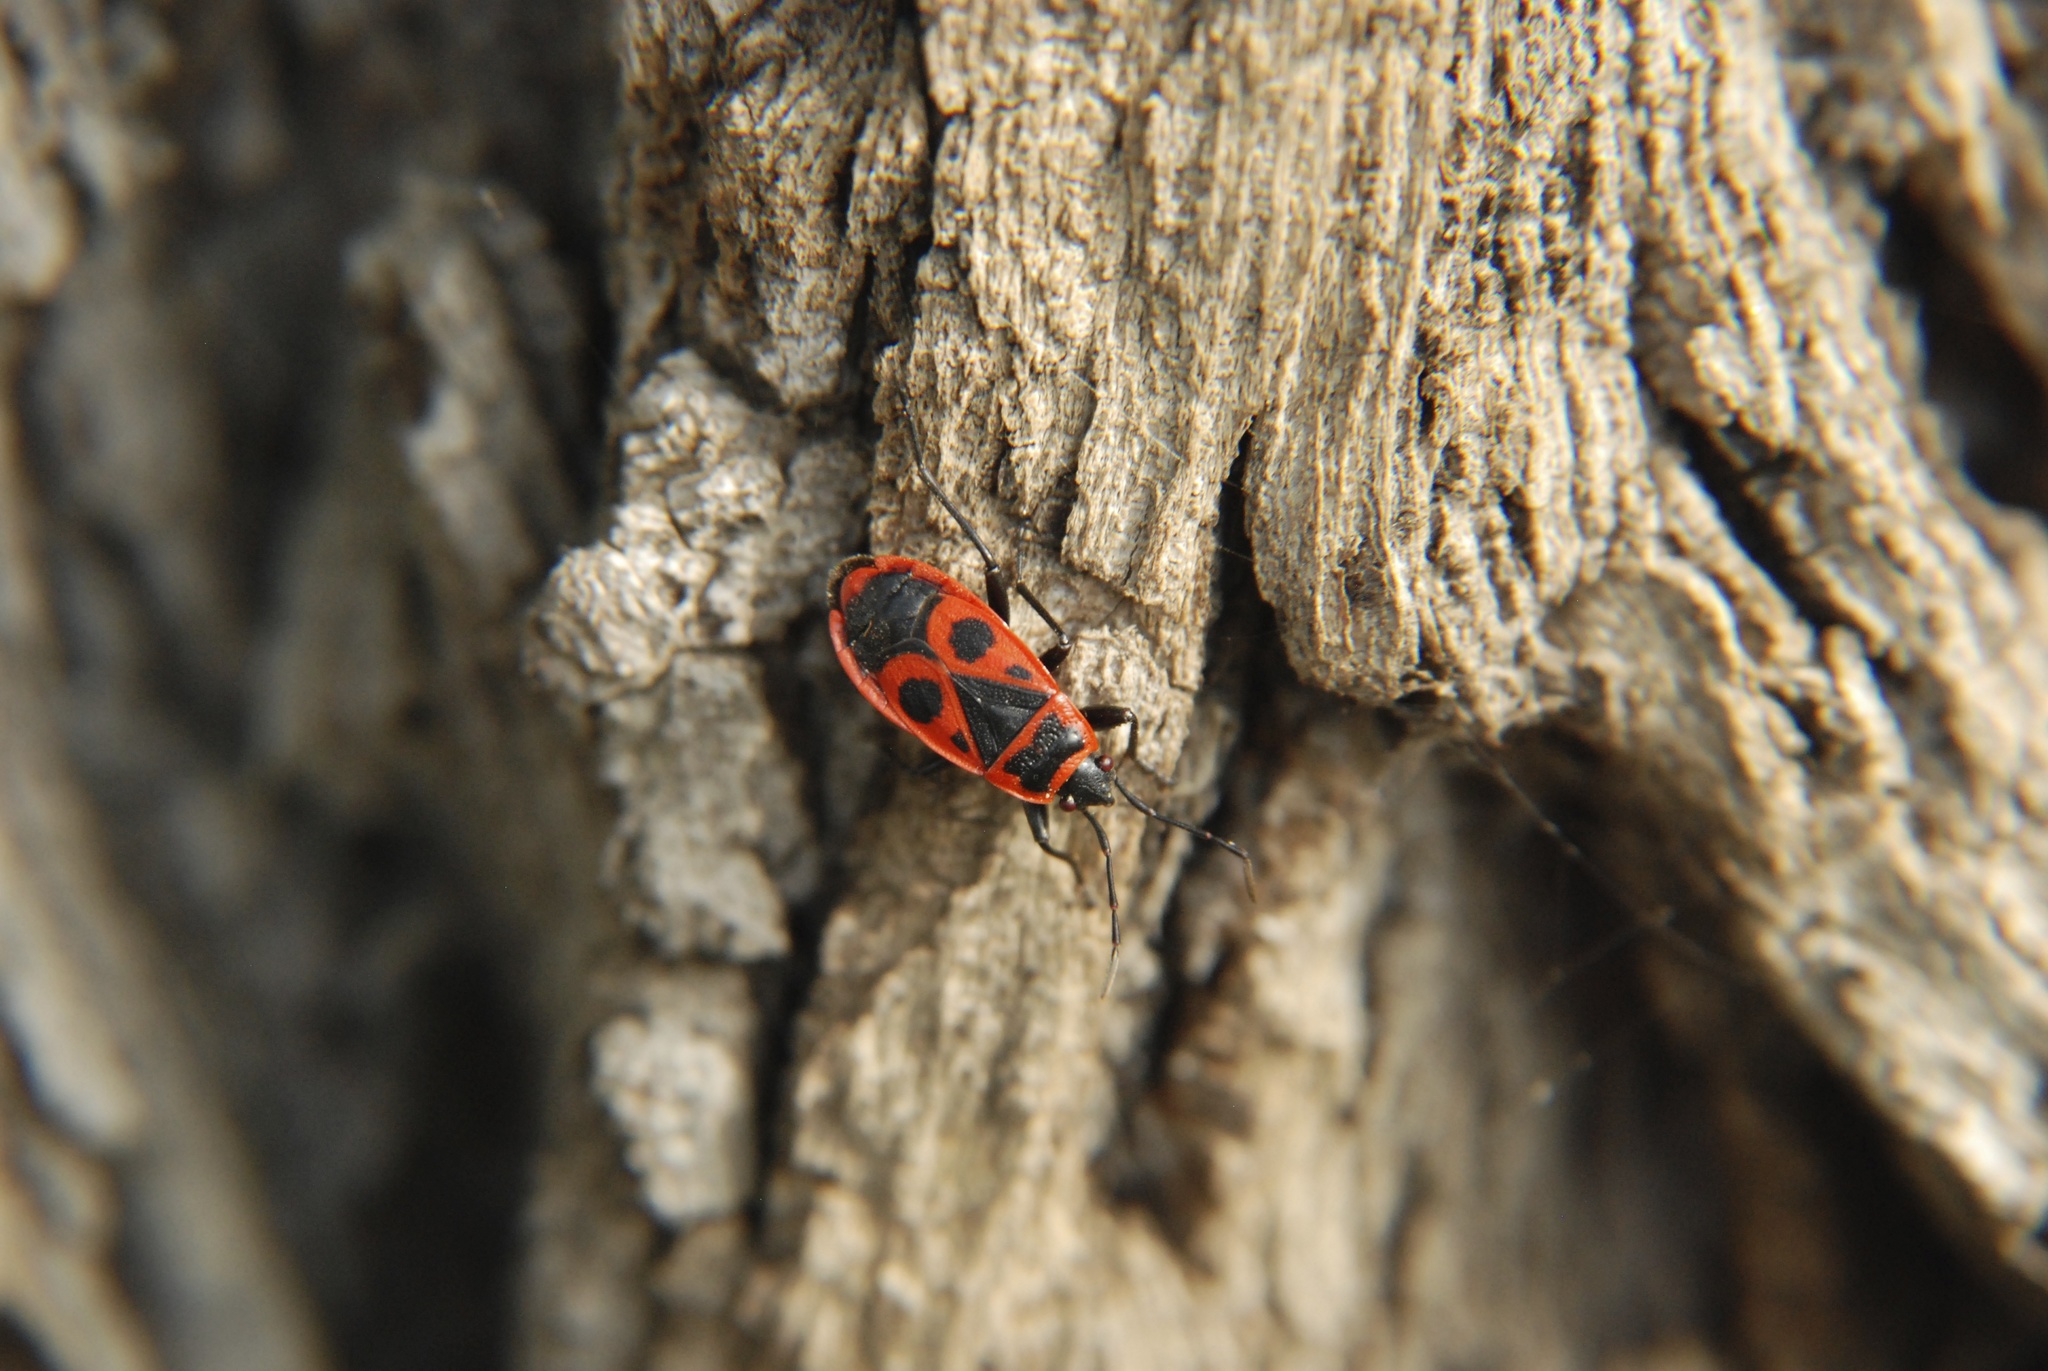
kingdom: Animalia
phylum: Arthropoda
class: Insecta
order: Hemiptera
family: Pyrrhocoridae
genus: Pyrrhocoris
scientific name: Pyrrhocoris apterus
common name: Firebug
